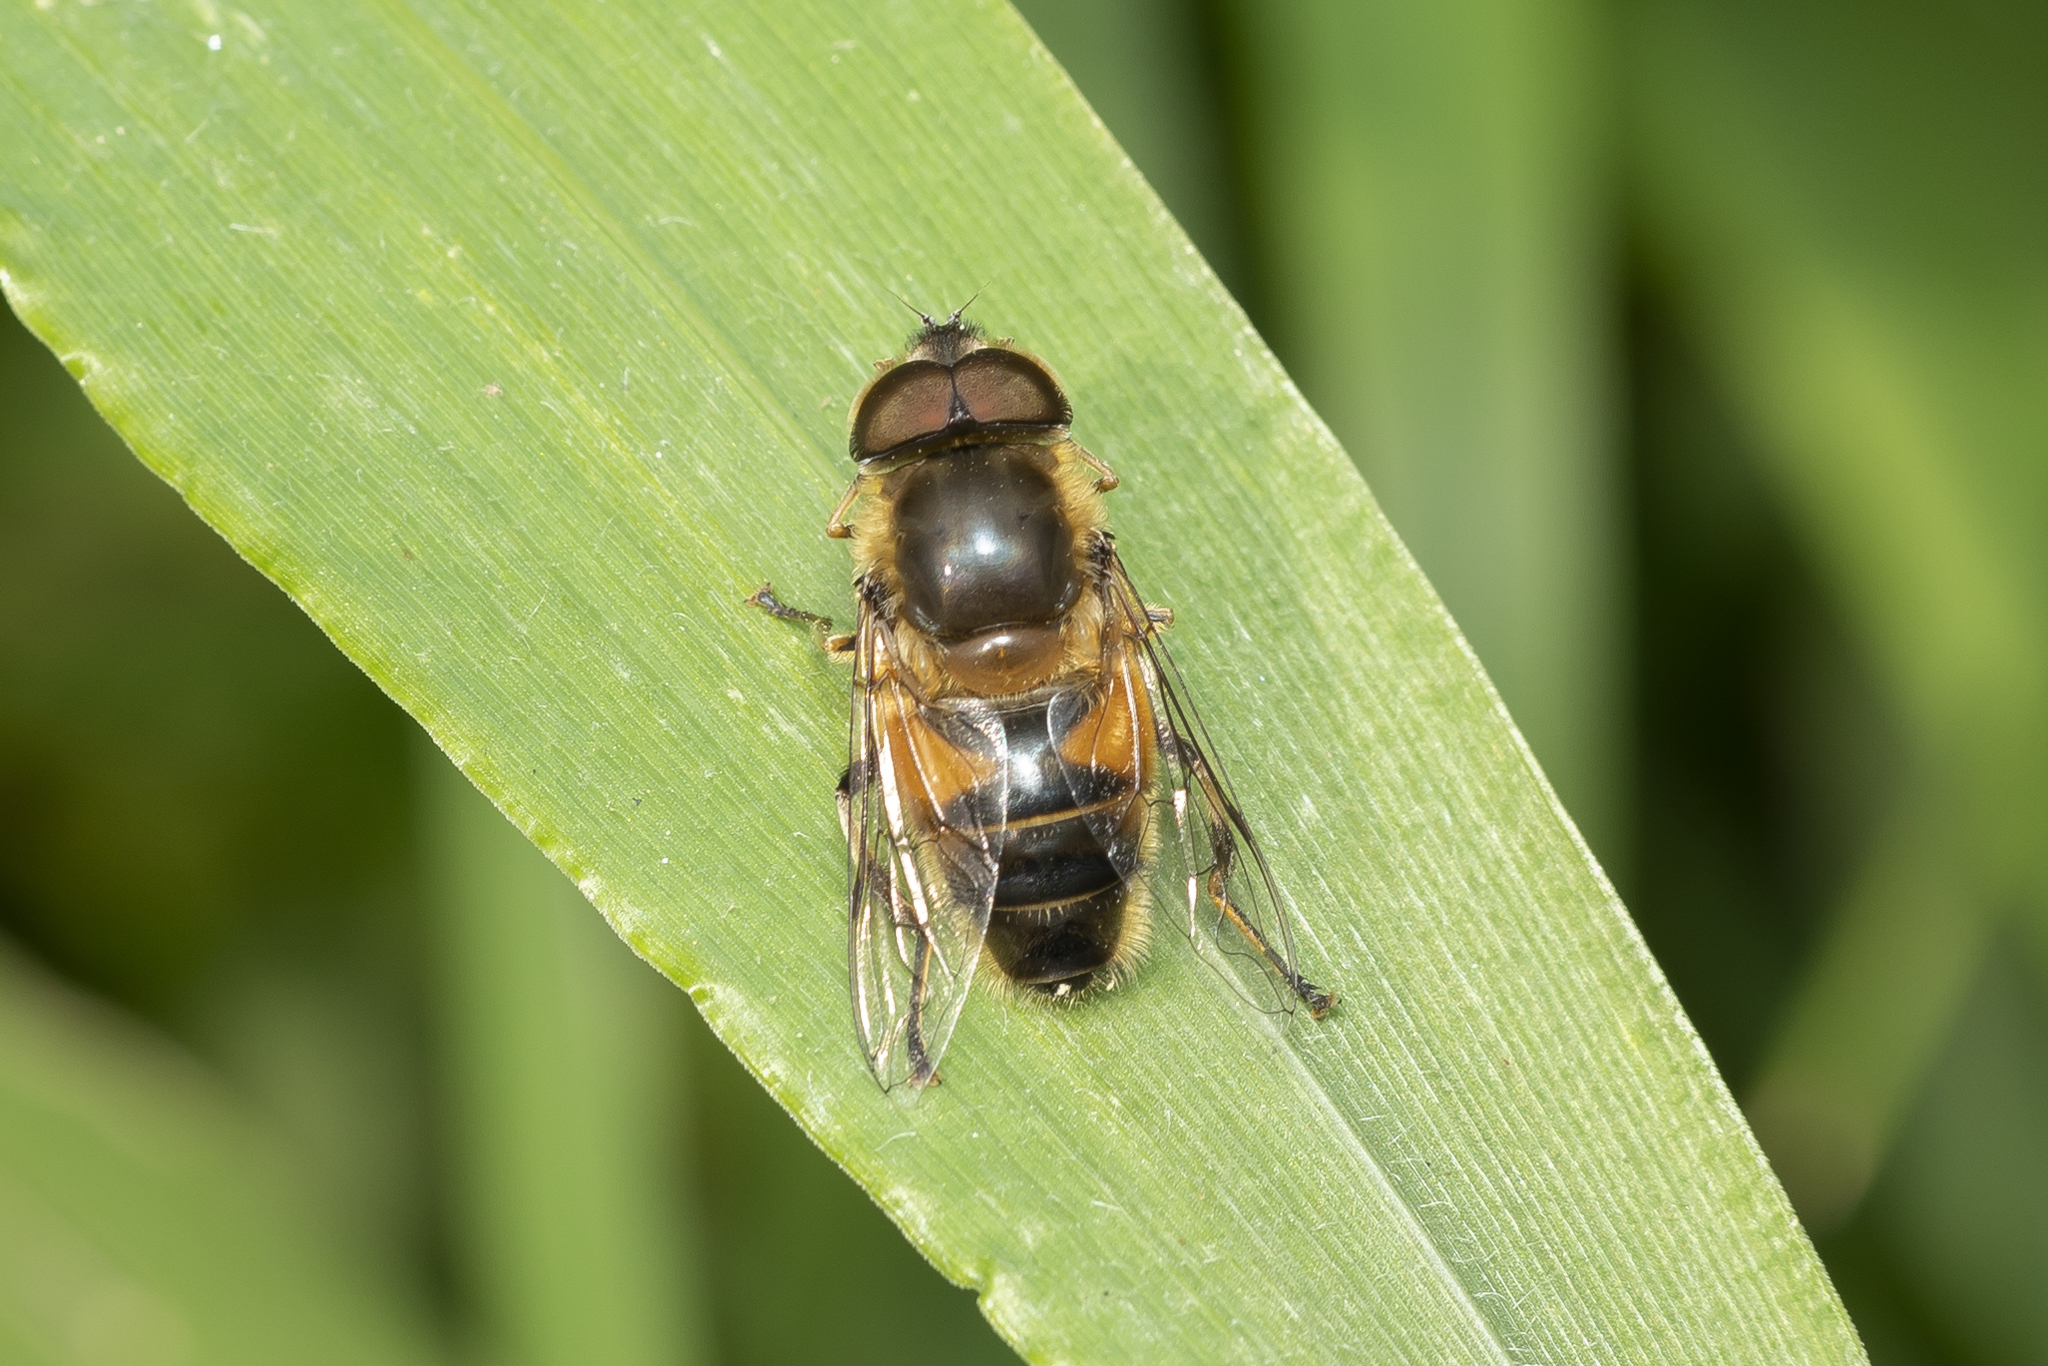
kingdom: Animalia
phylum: Arthropoda
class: Insecta
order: Diptera
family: Syrphidae
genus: Eristalis
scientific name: Eristalis pertinax
